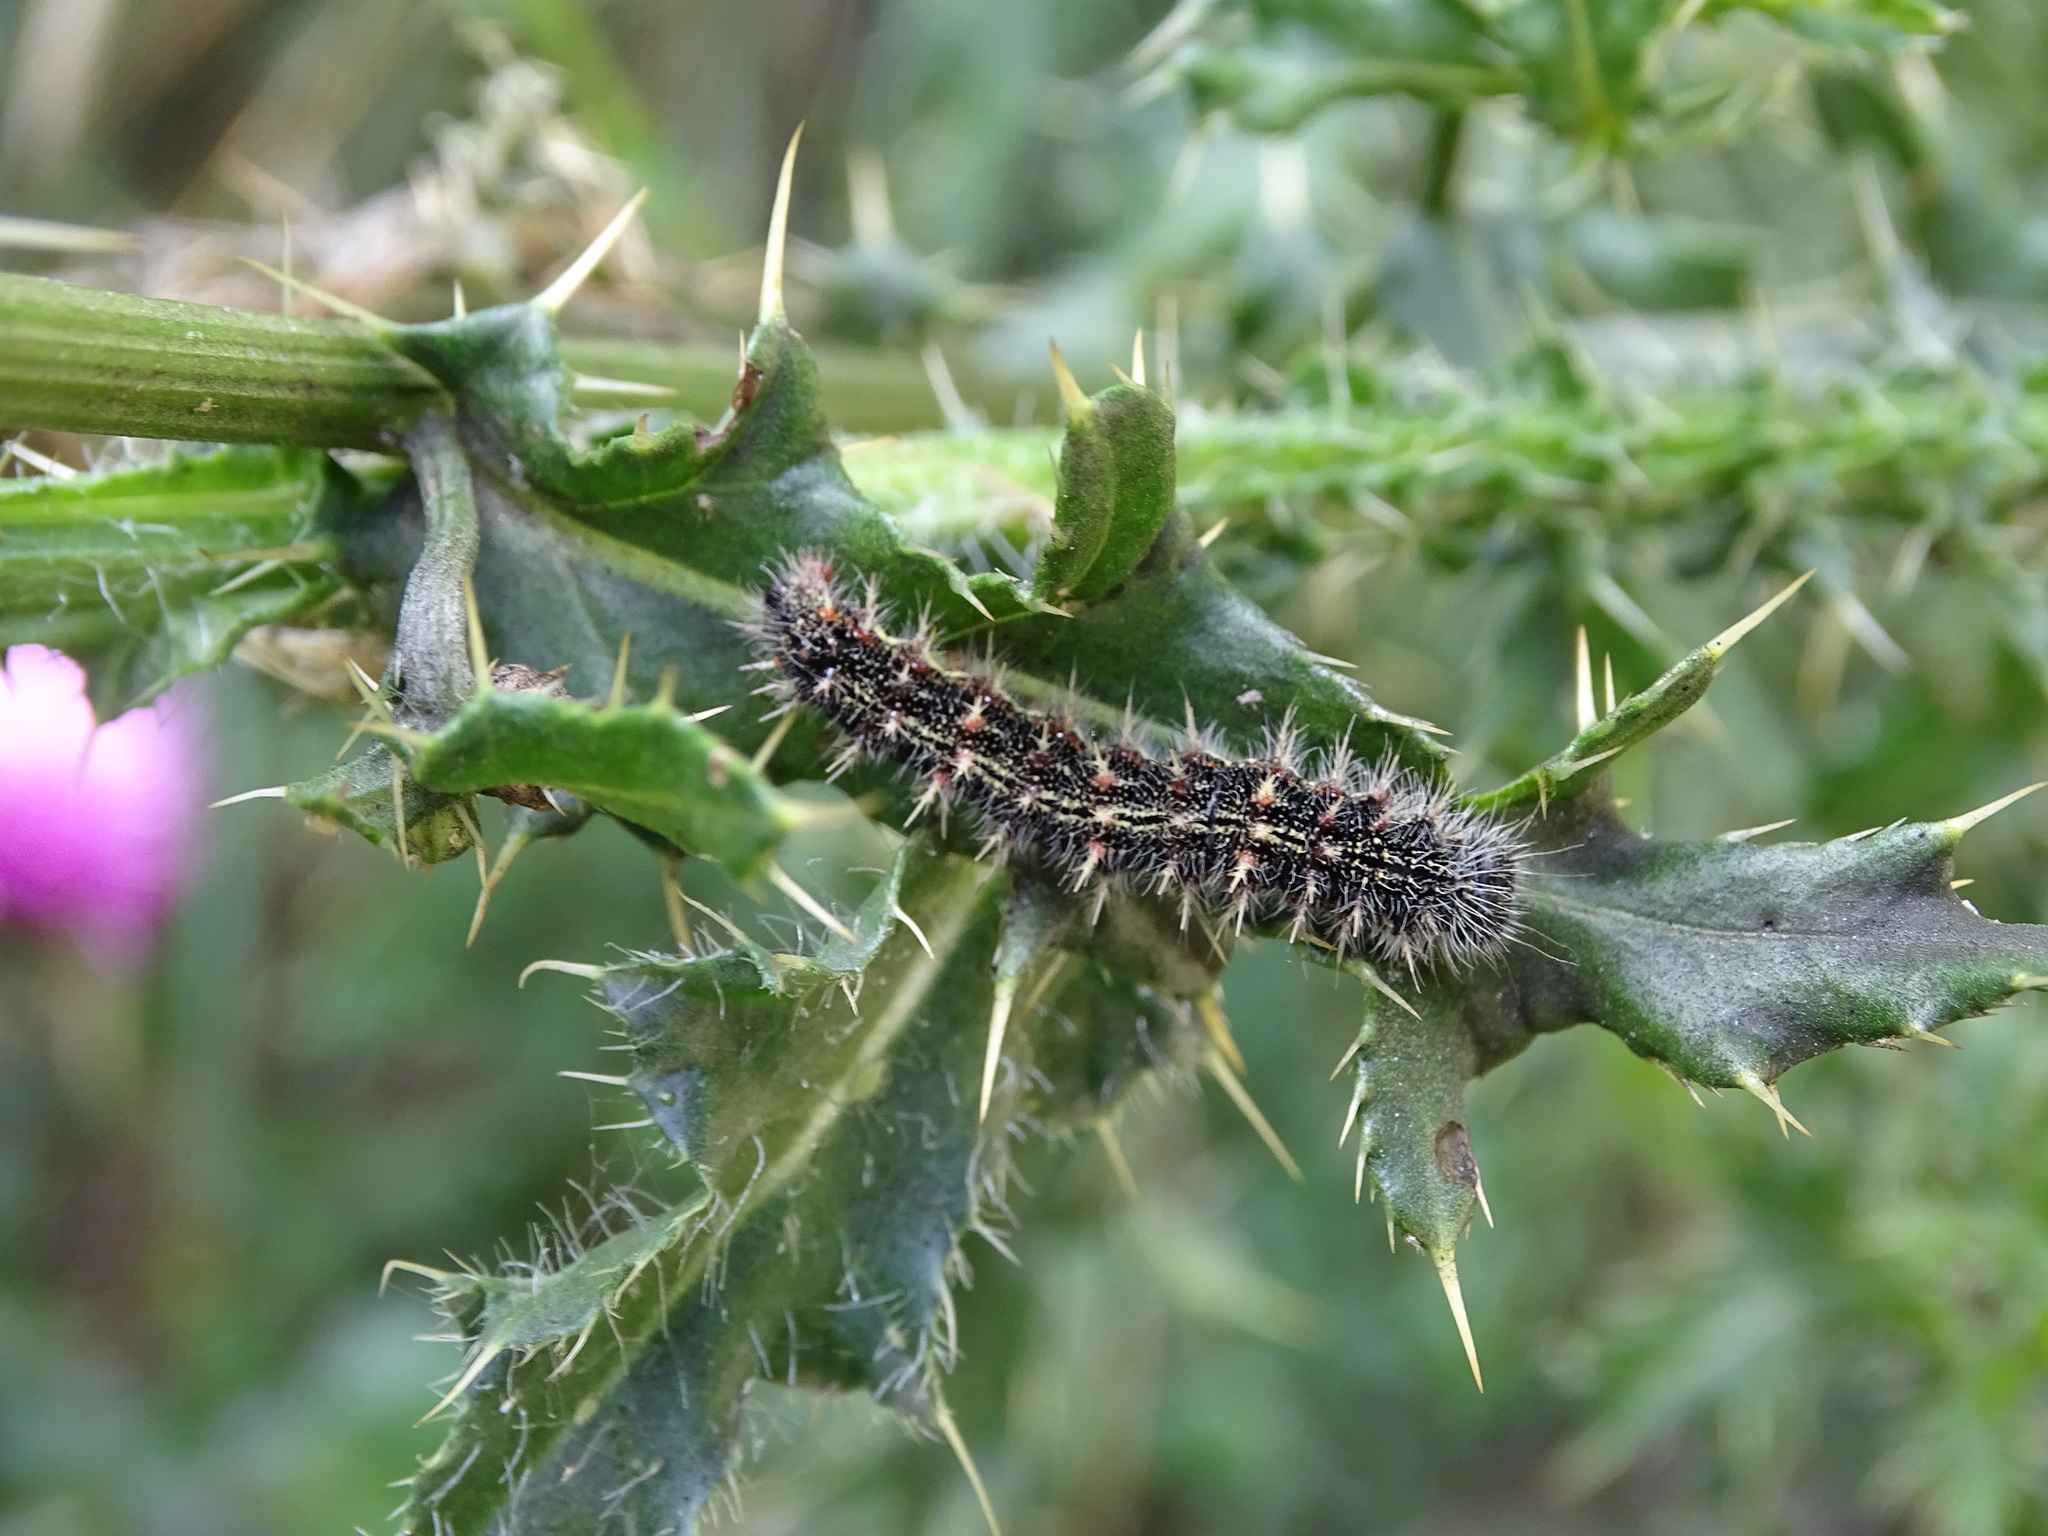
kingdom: Animalia
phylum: Arthropoda
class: Insecta
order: Lepidoptera
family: Nymphalidae
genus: Vanessa
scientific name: Vanessa cardui
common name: Painted lady
